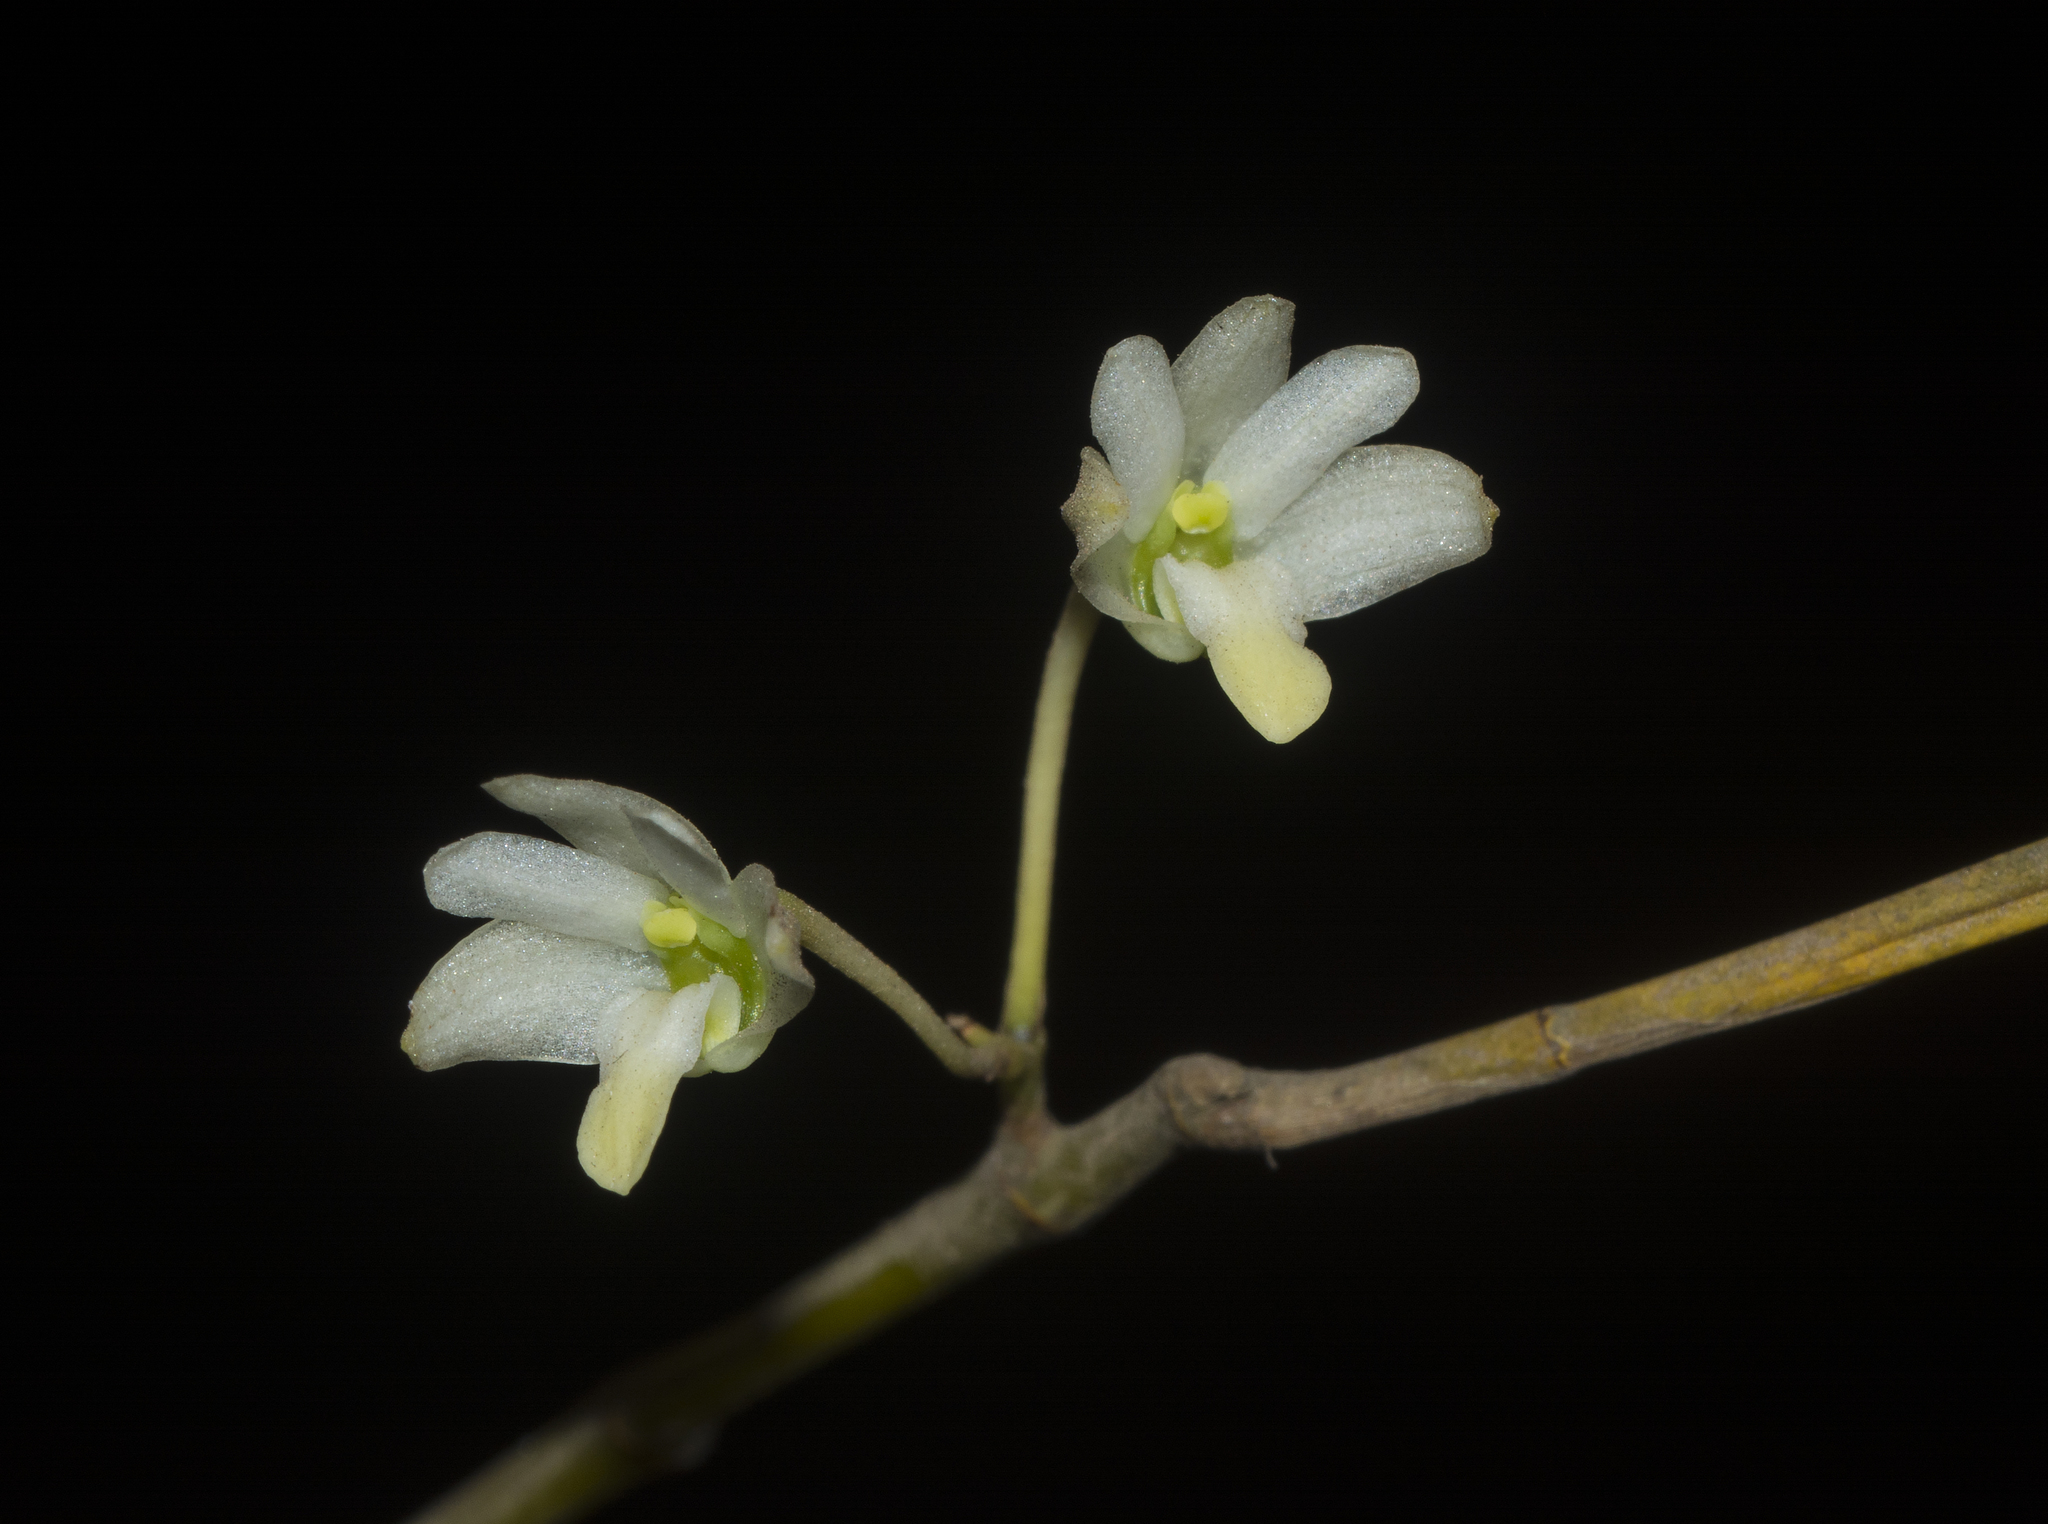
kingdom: Plantae
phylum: Tracheophyta
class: Liliopsida
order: Asparagales
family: Orchidaceae
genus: Dendrobium
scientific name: Dendrobium herbaceum
